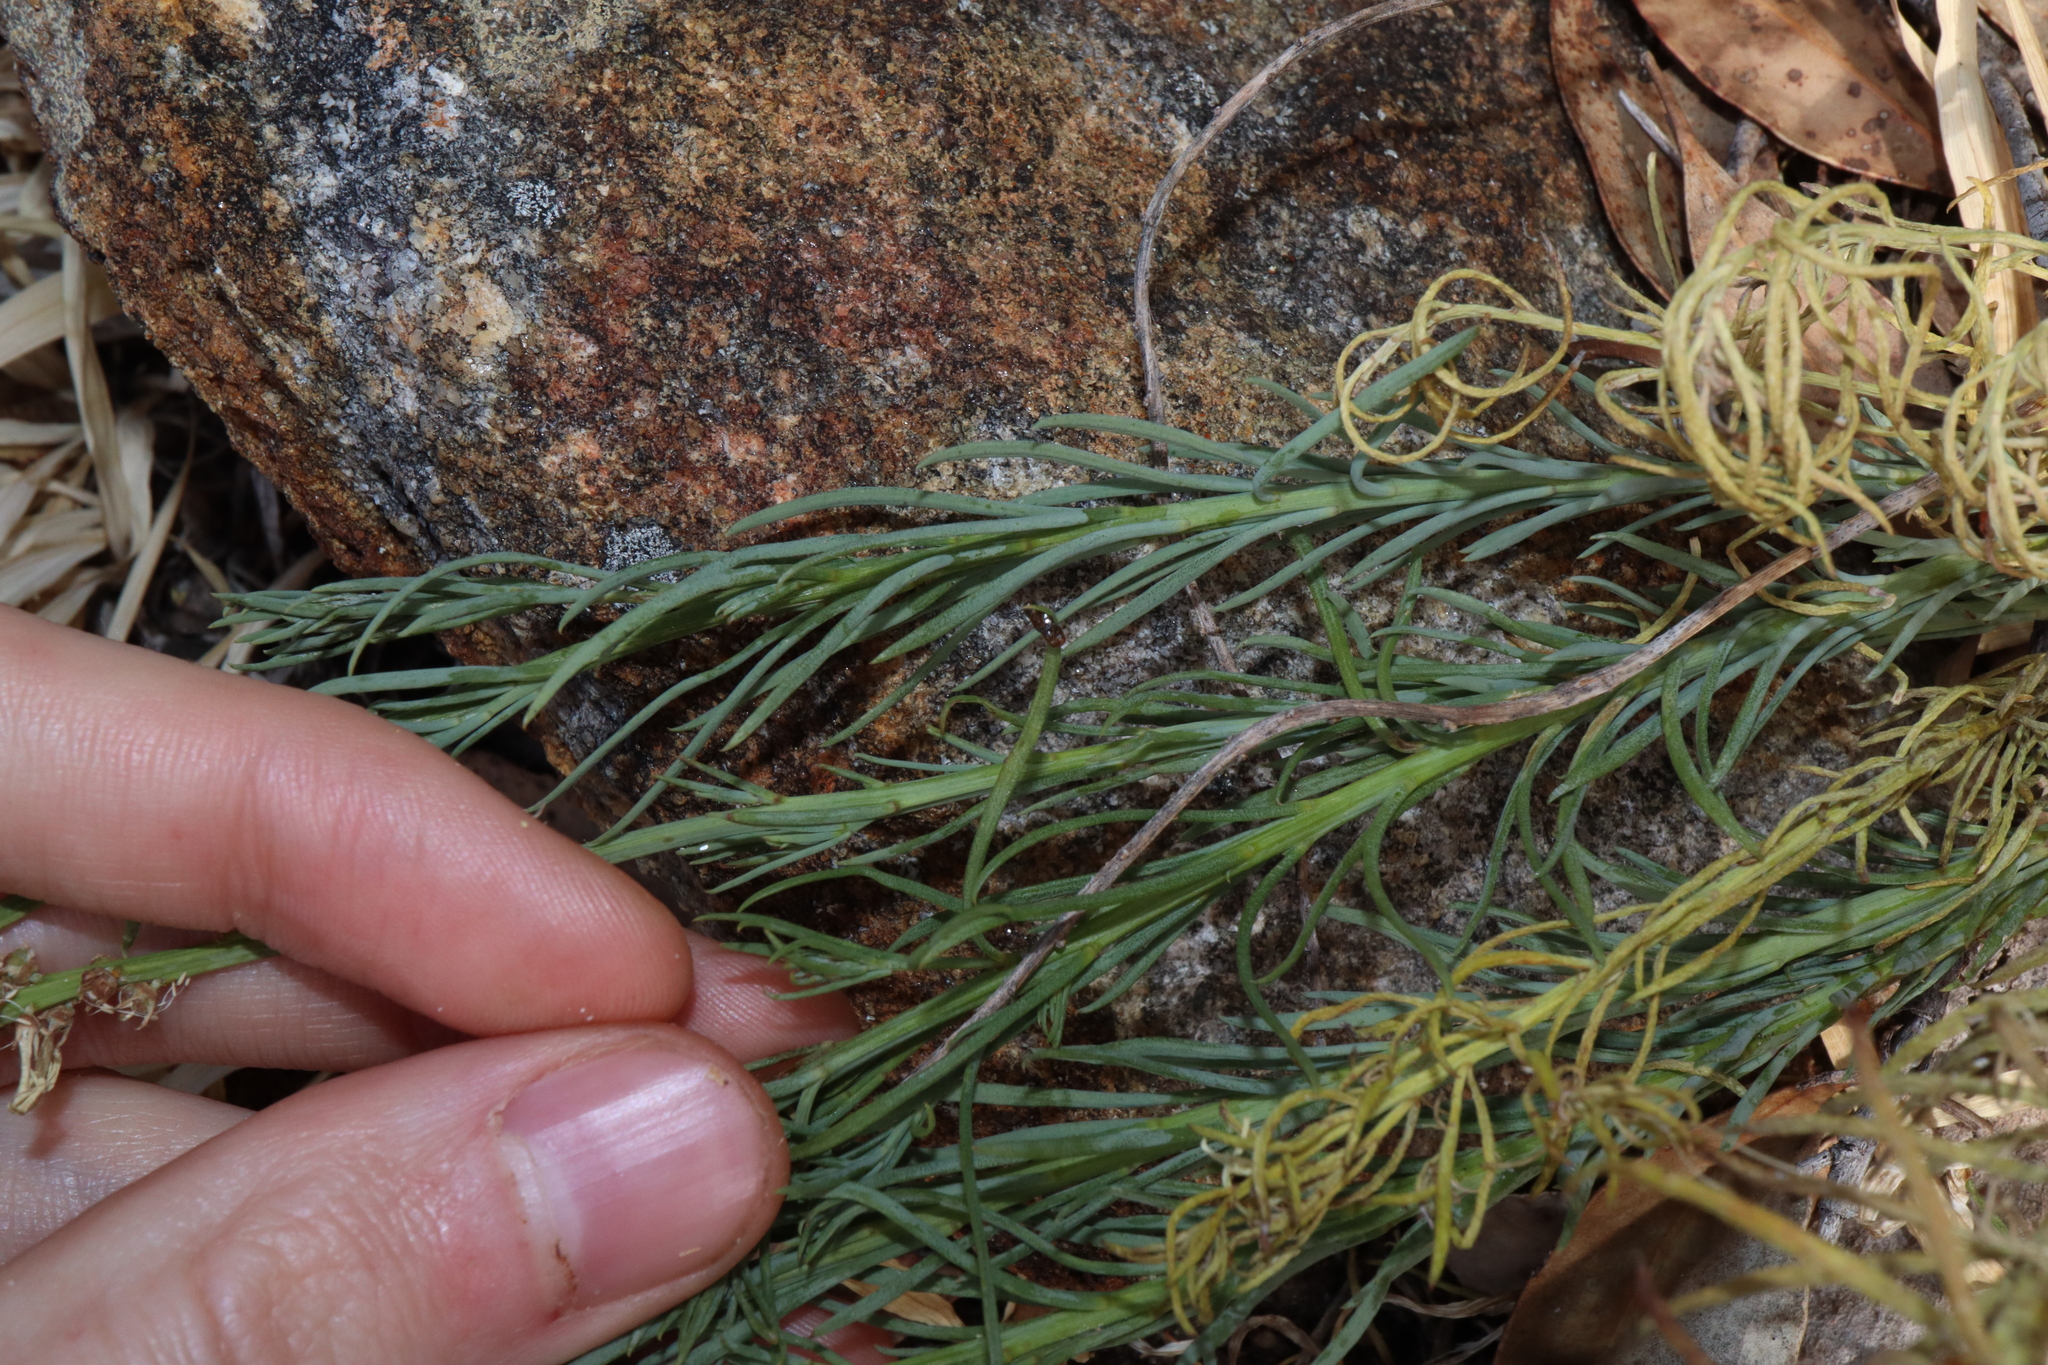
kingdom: Plantae
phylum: Tracheophyta
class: Magnoliopsida
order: Celastrales
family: Celastraceae
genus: Stackhousia
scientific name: Stackhousia monogyna
